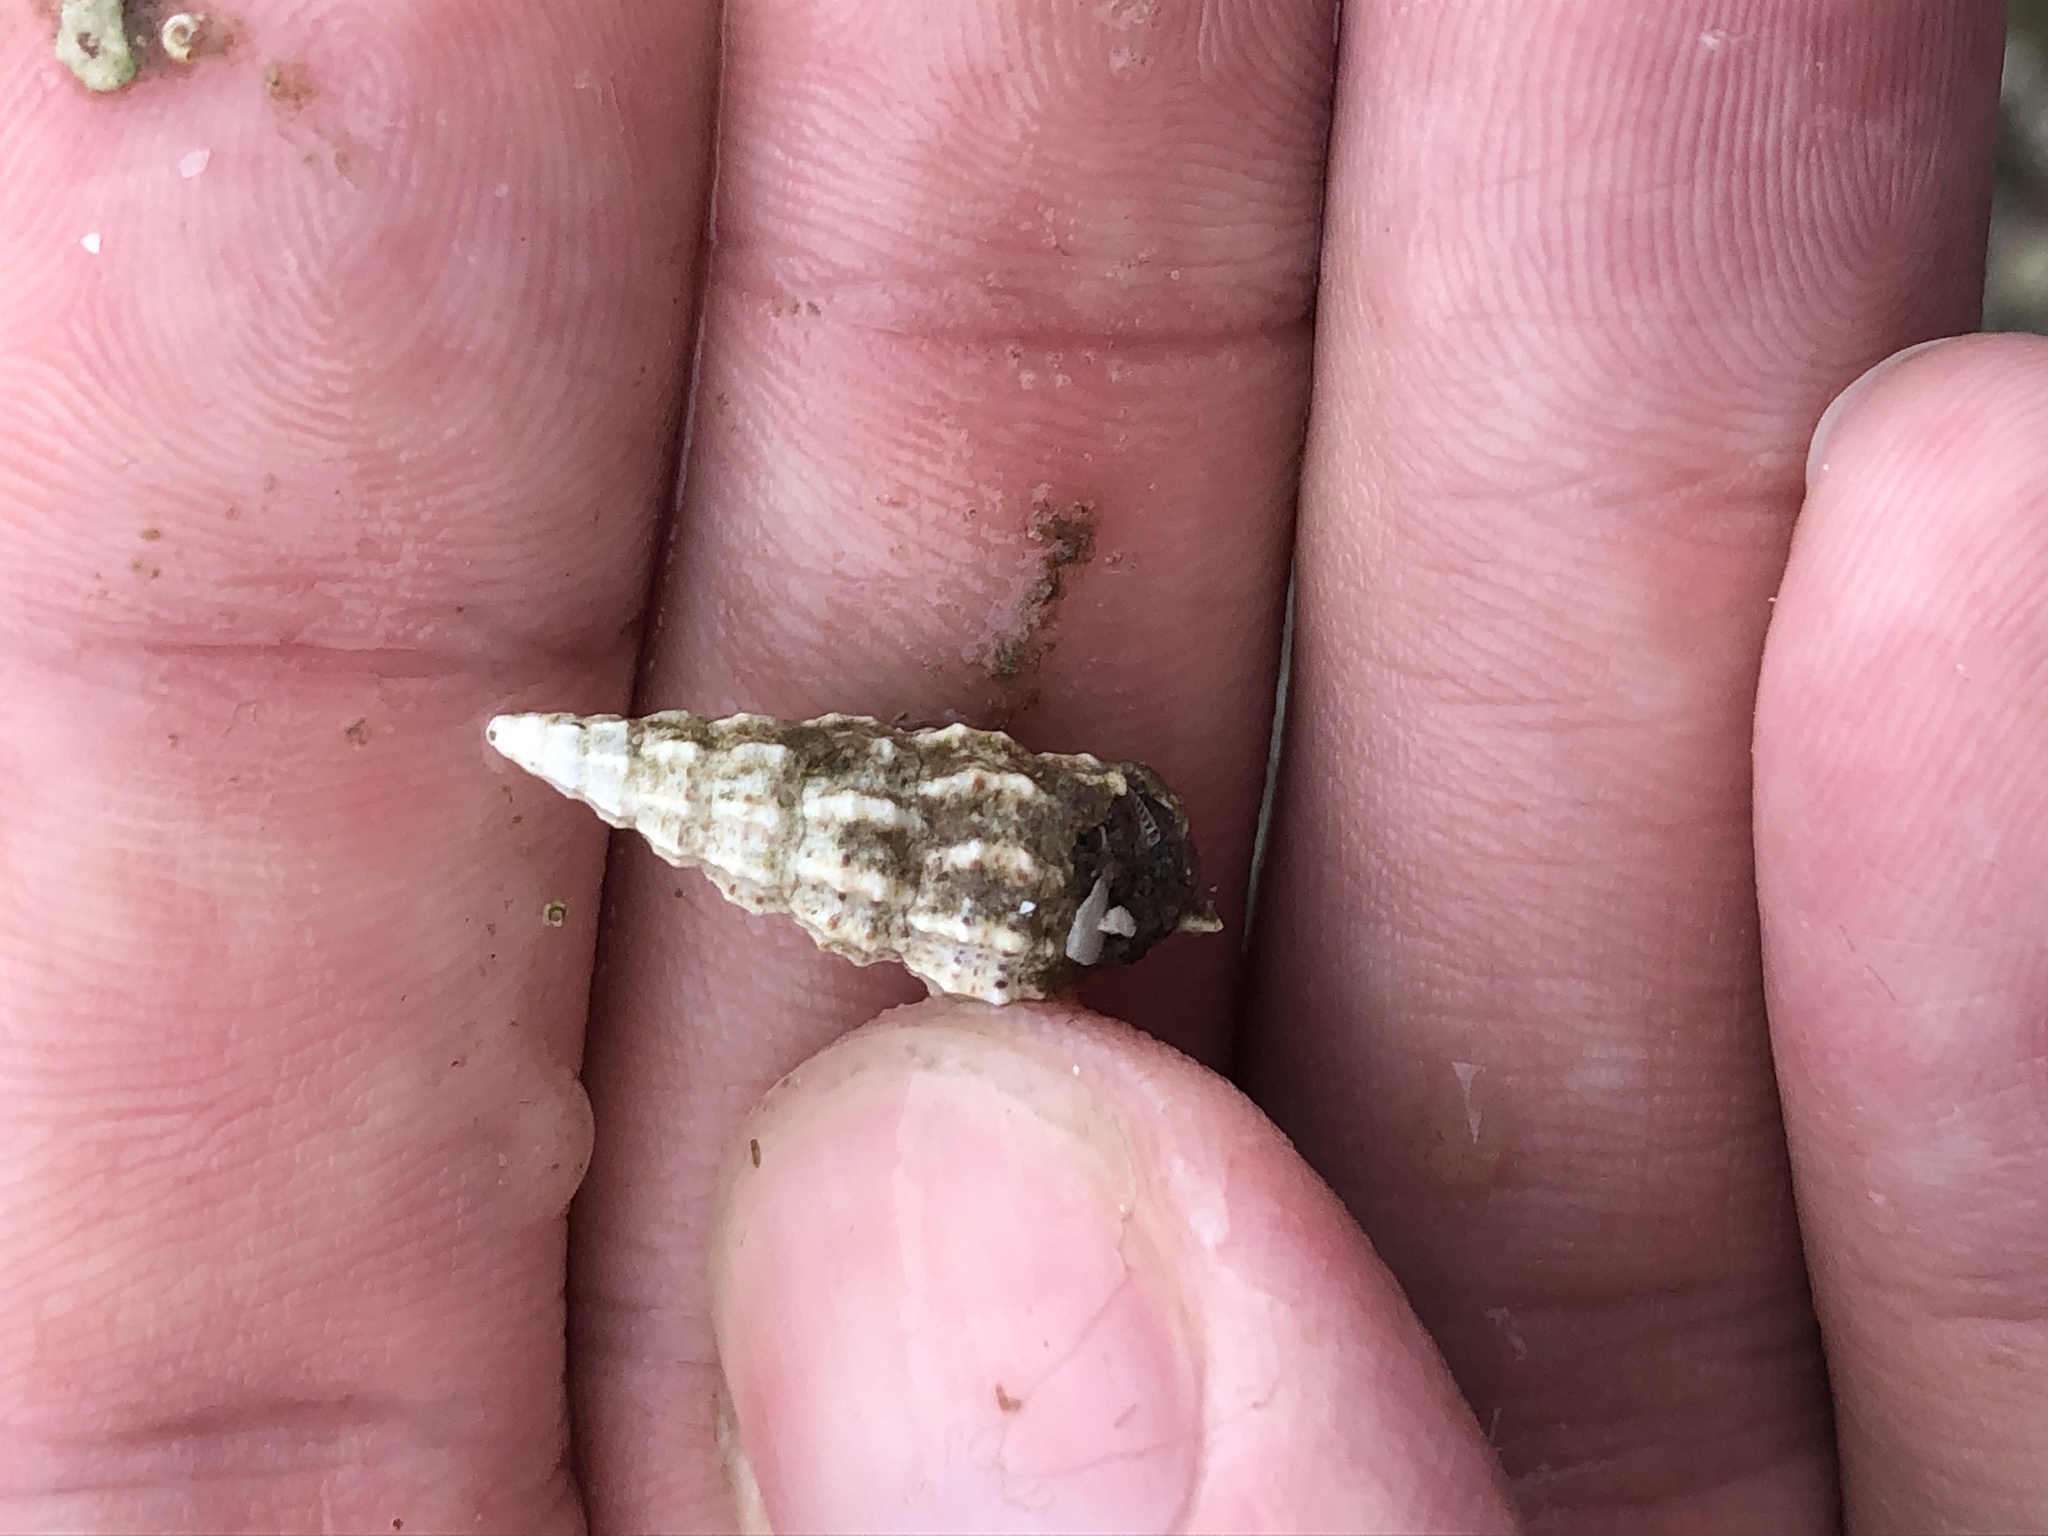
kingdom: Animalia
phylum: Mollusca
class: Gastropoda
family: Cerithiidae
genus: Cerithium
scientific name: Cerithium muscarum
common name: Fly-specked cerith
